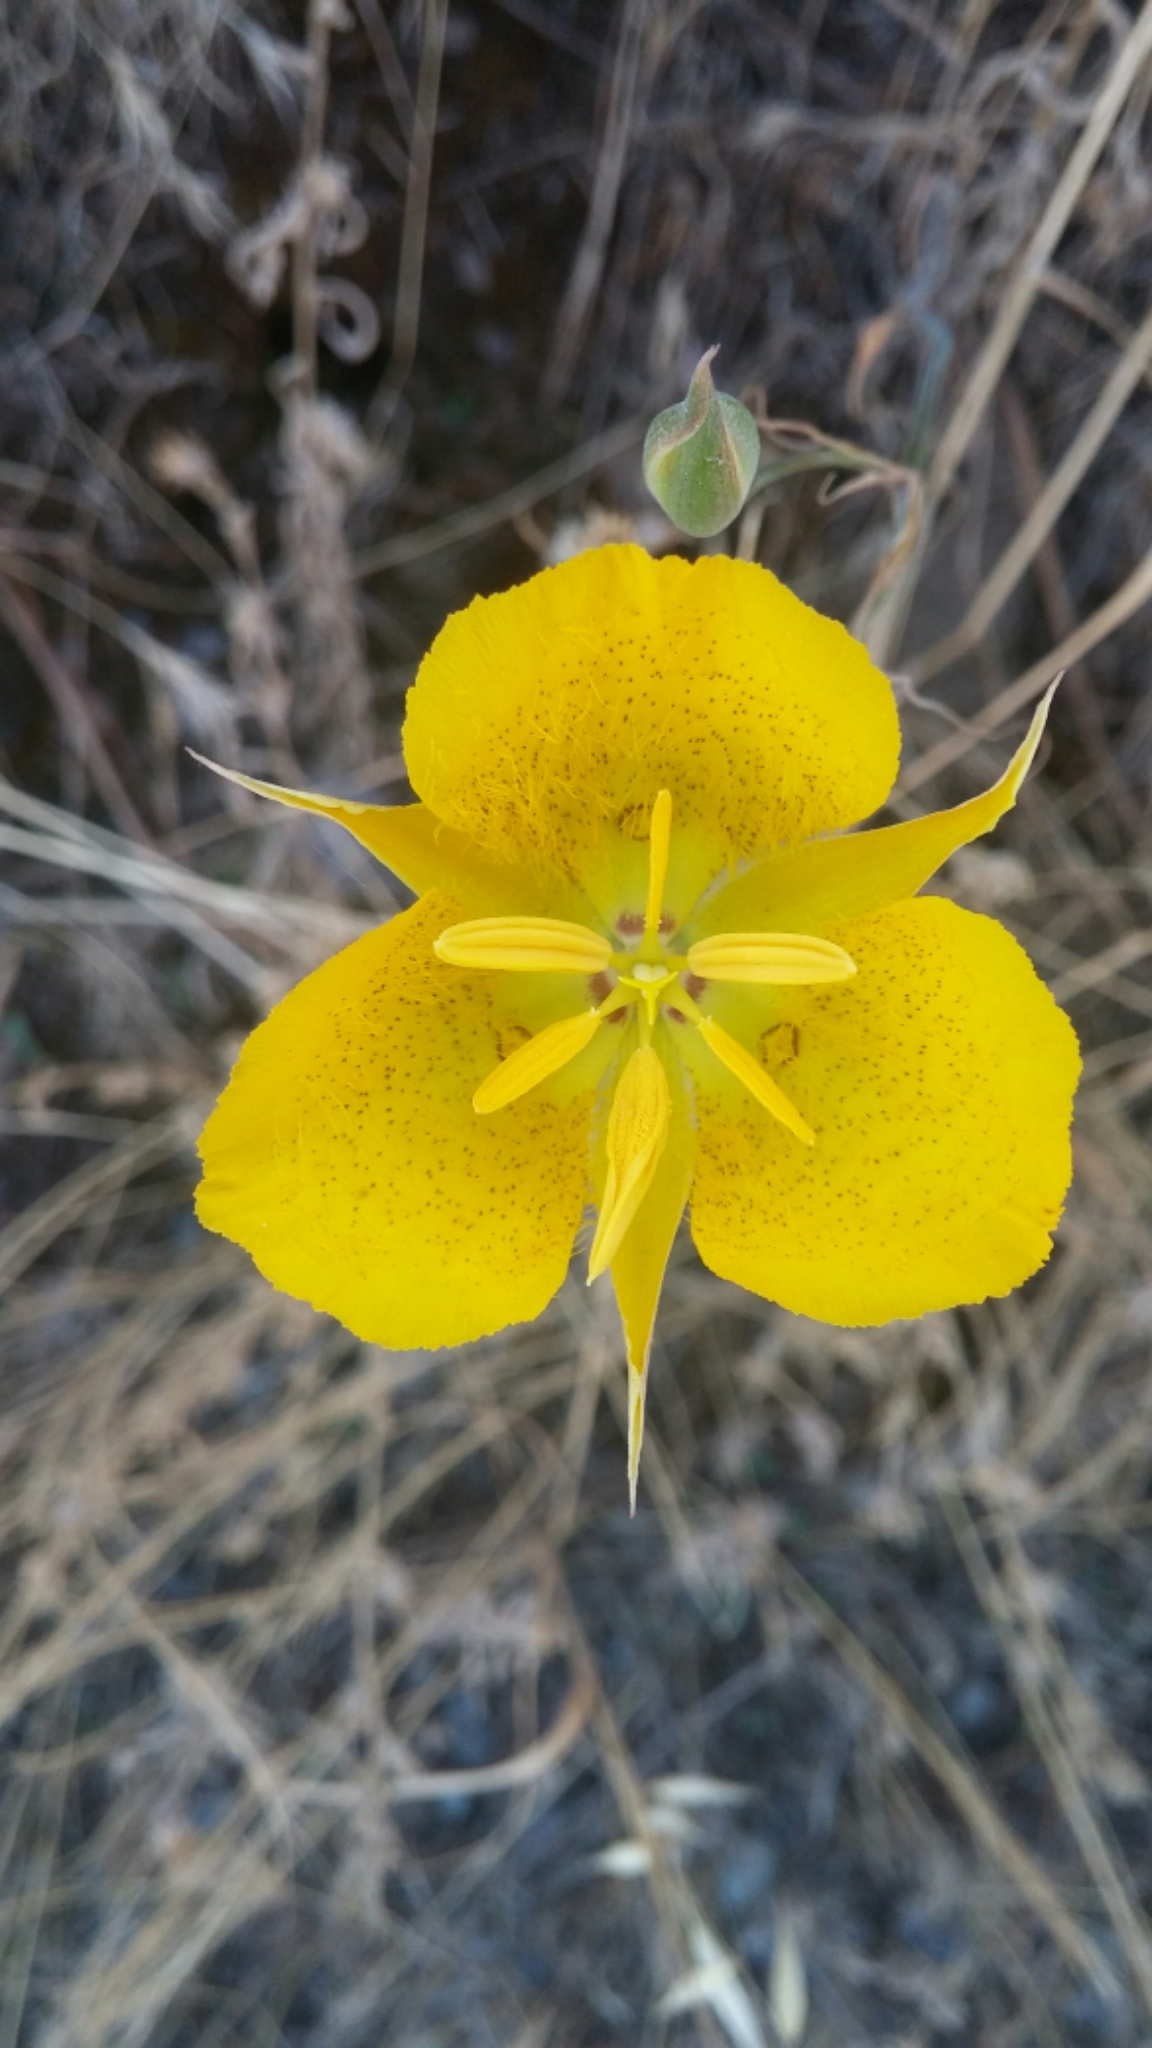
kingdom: Plantae
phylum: Tracheophyta
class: Liliopsida
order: Liliales
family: Liliaceae
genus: Calochortus
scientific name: Calochortus weedii
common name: Weed's mariposa-lily
